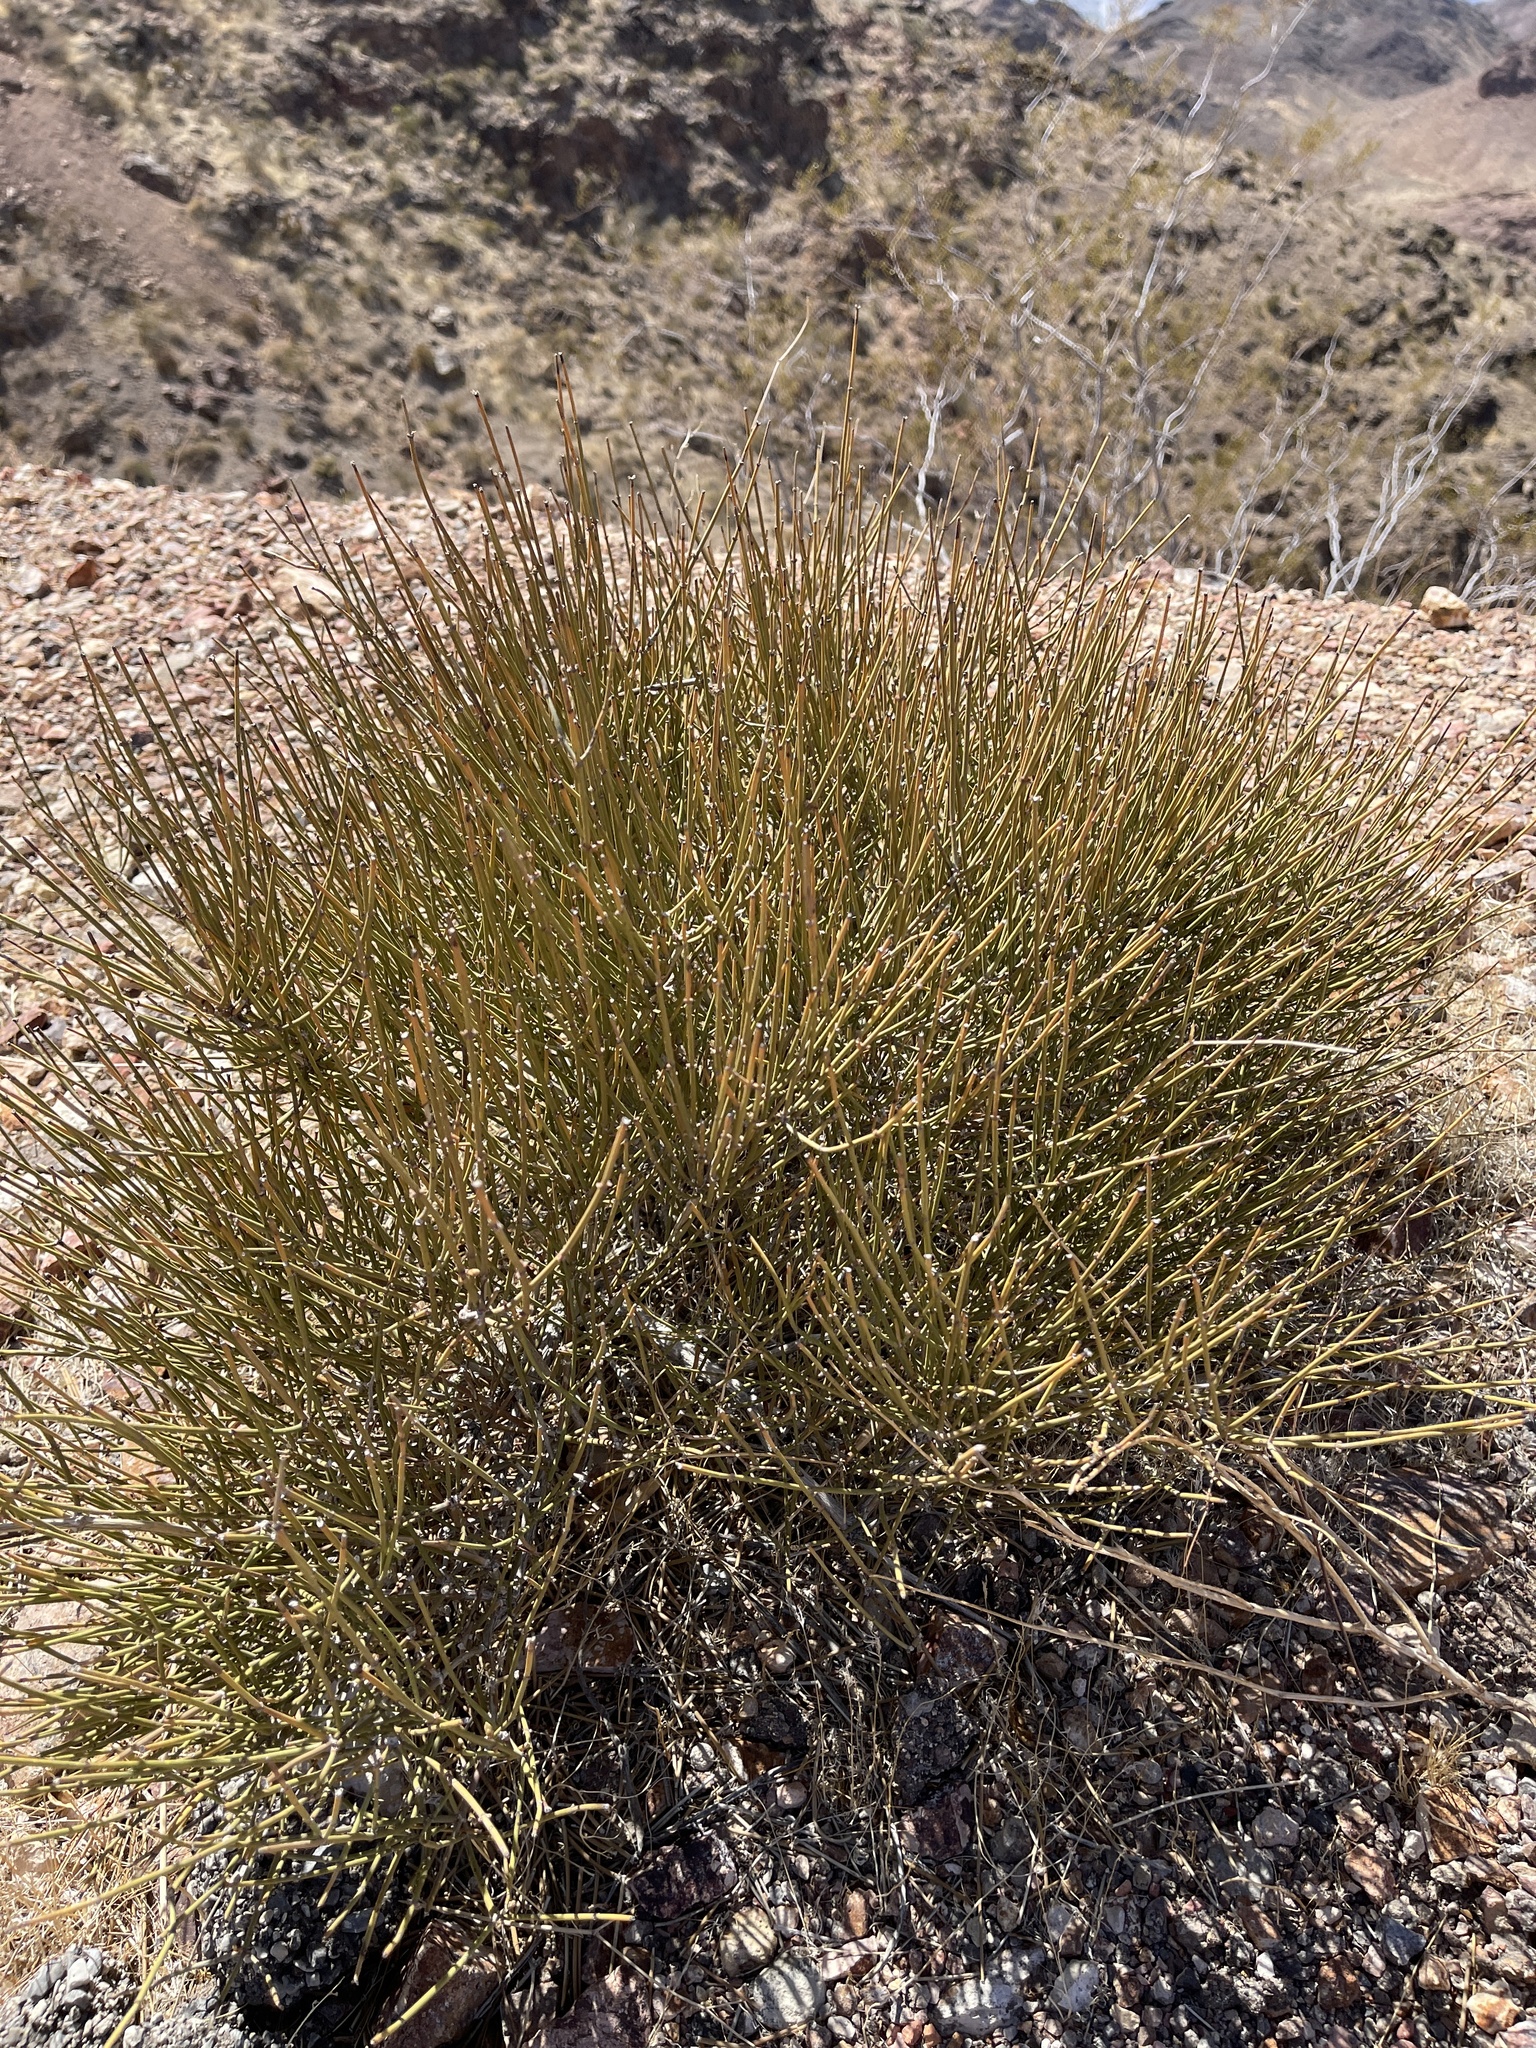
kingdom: Plantae
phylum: Tracheophyta
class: Gnetopsida
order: Ephedrales
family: Ephedraceae
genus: Ephedra
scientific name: Ephedra nevadensis
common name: Gray ephedra
